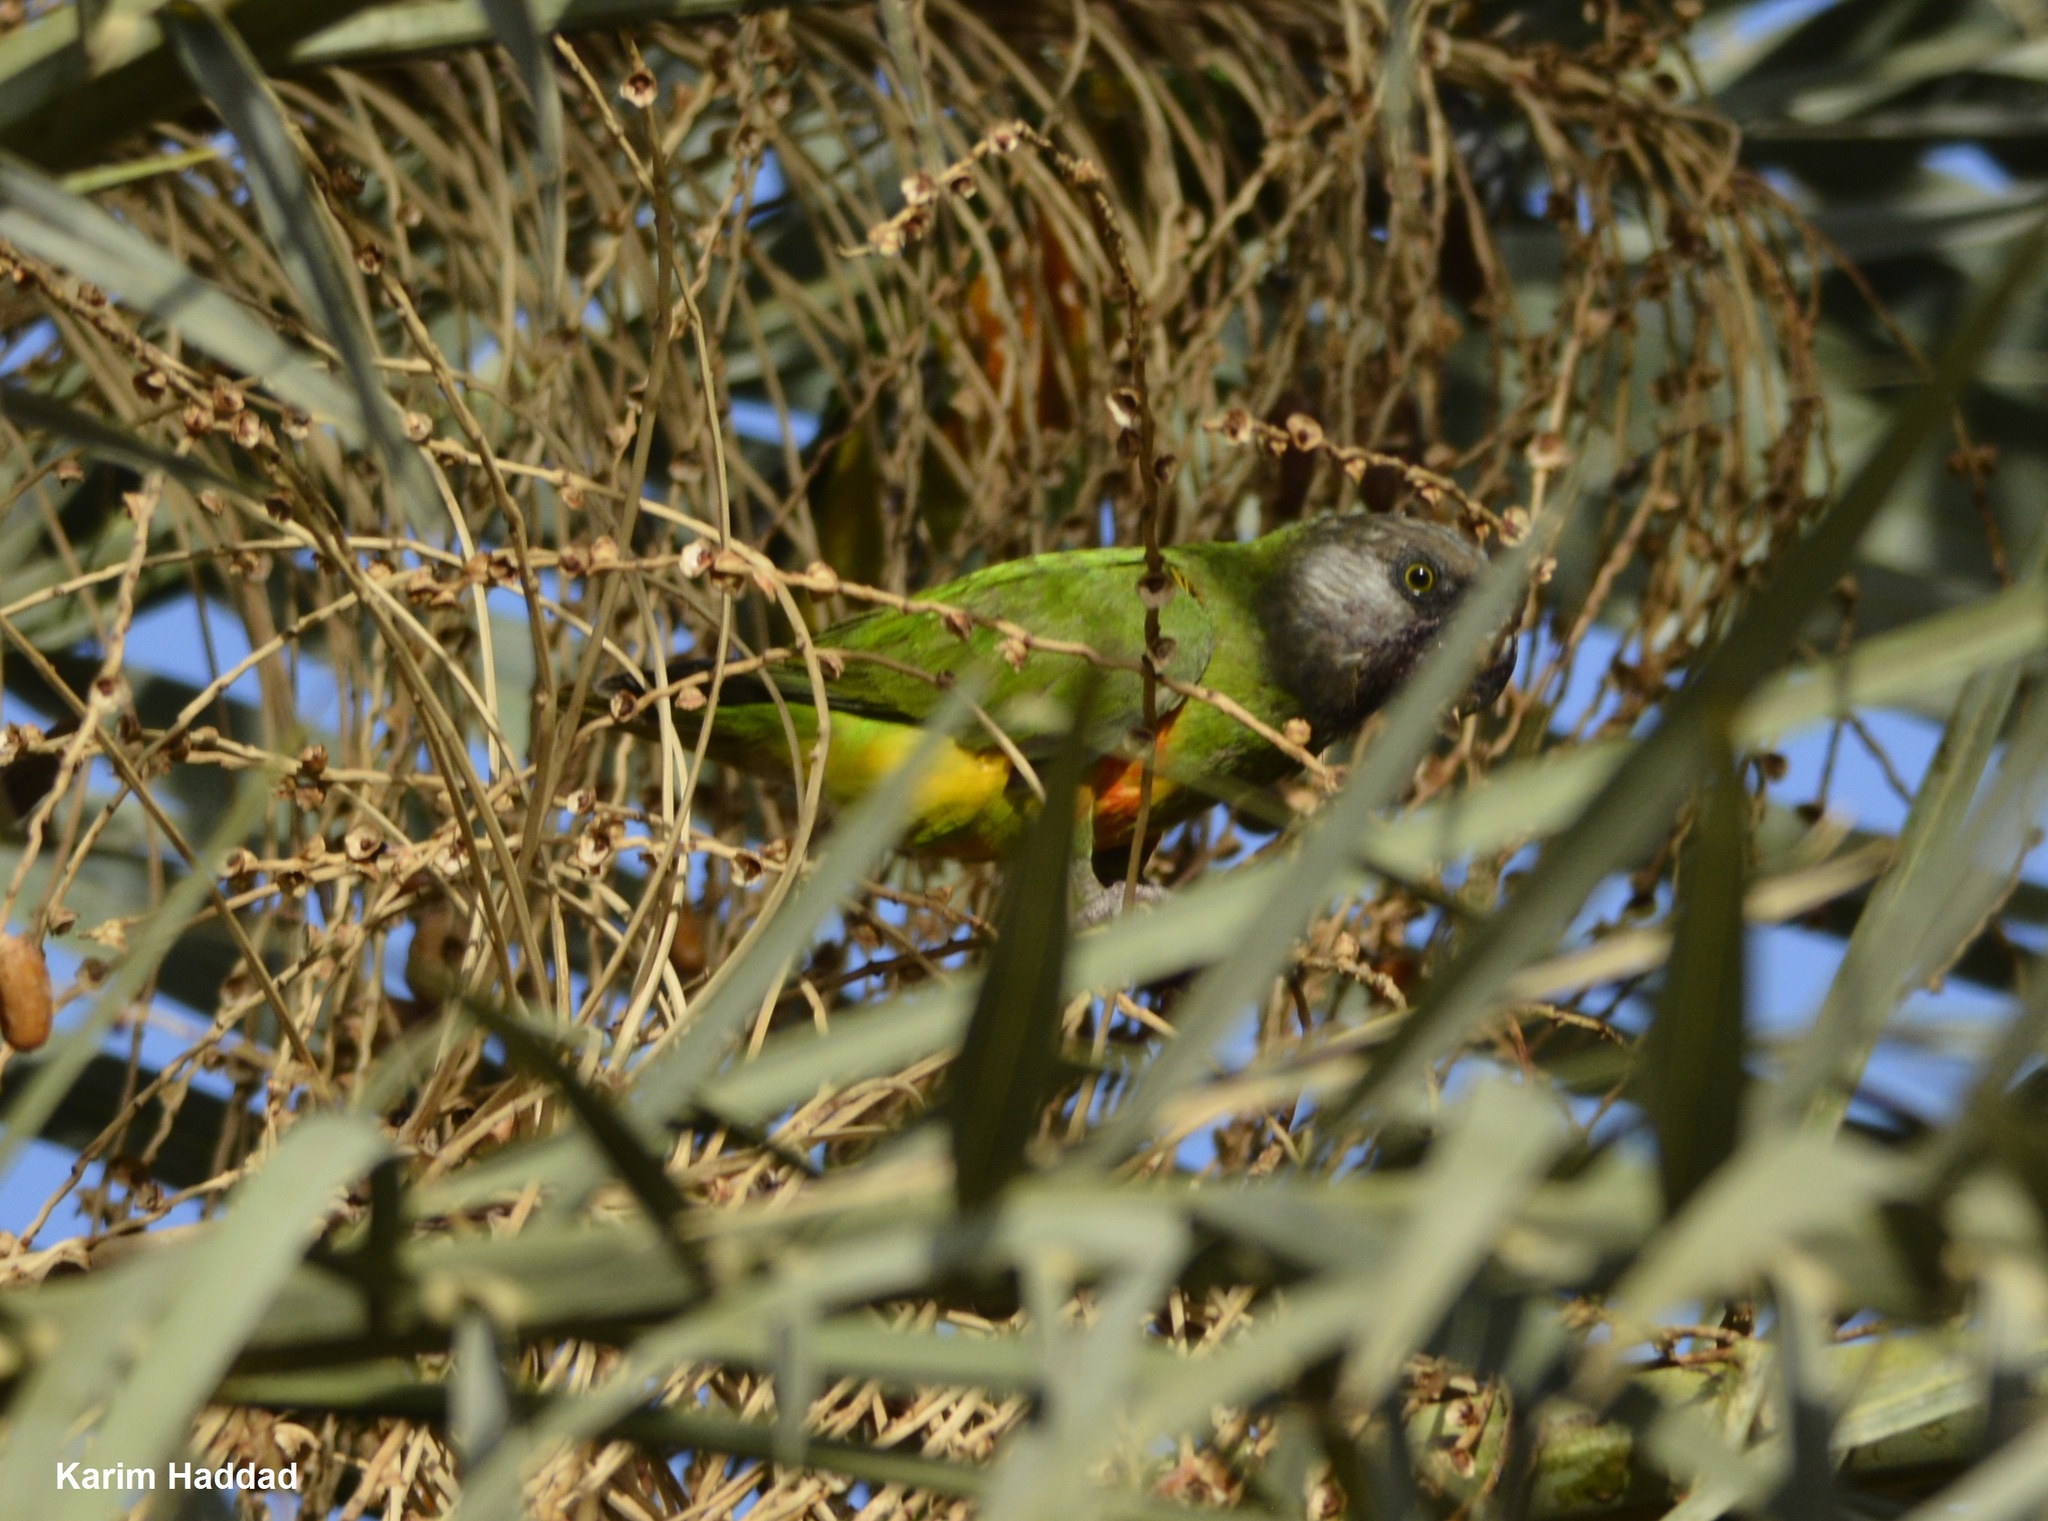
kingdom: Animalia
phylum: Chordata
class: Aves
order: Psittaciformes
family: Psittacidae
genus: Poicephalus
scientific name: Poicephalus senegalus
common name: Senegal parrot
